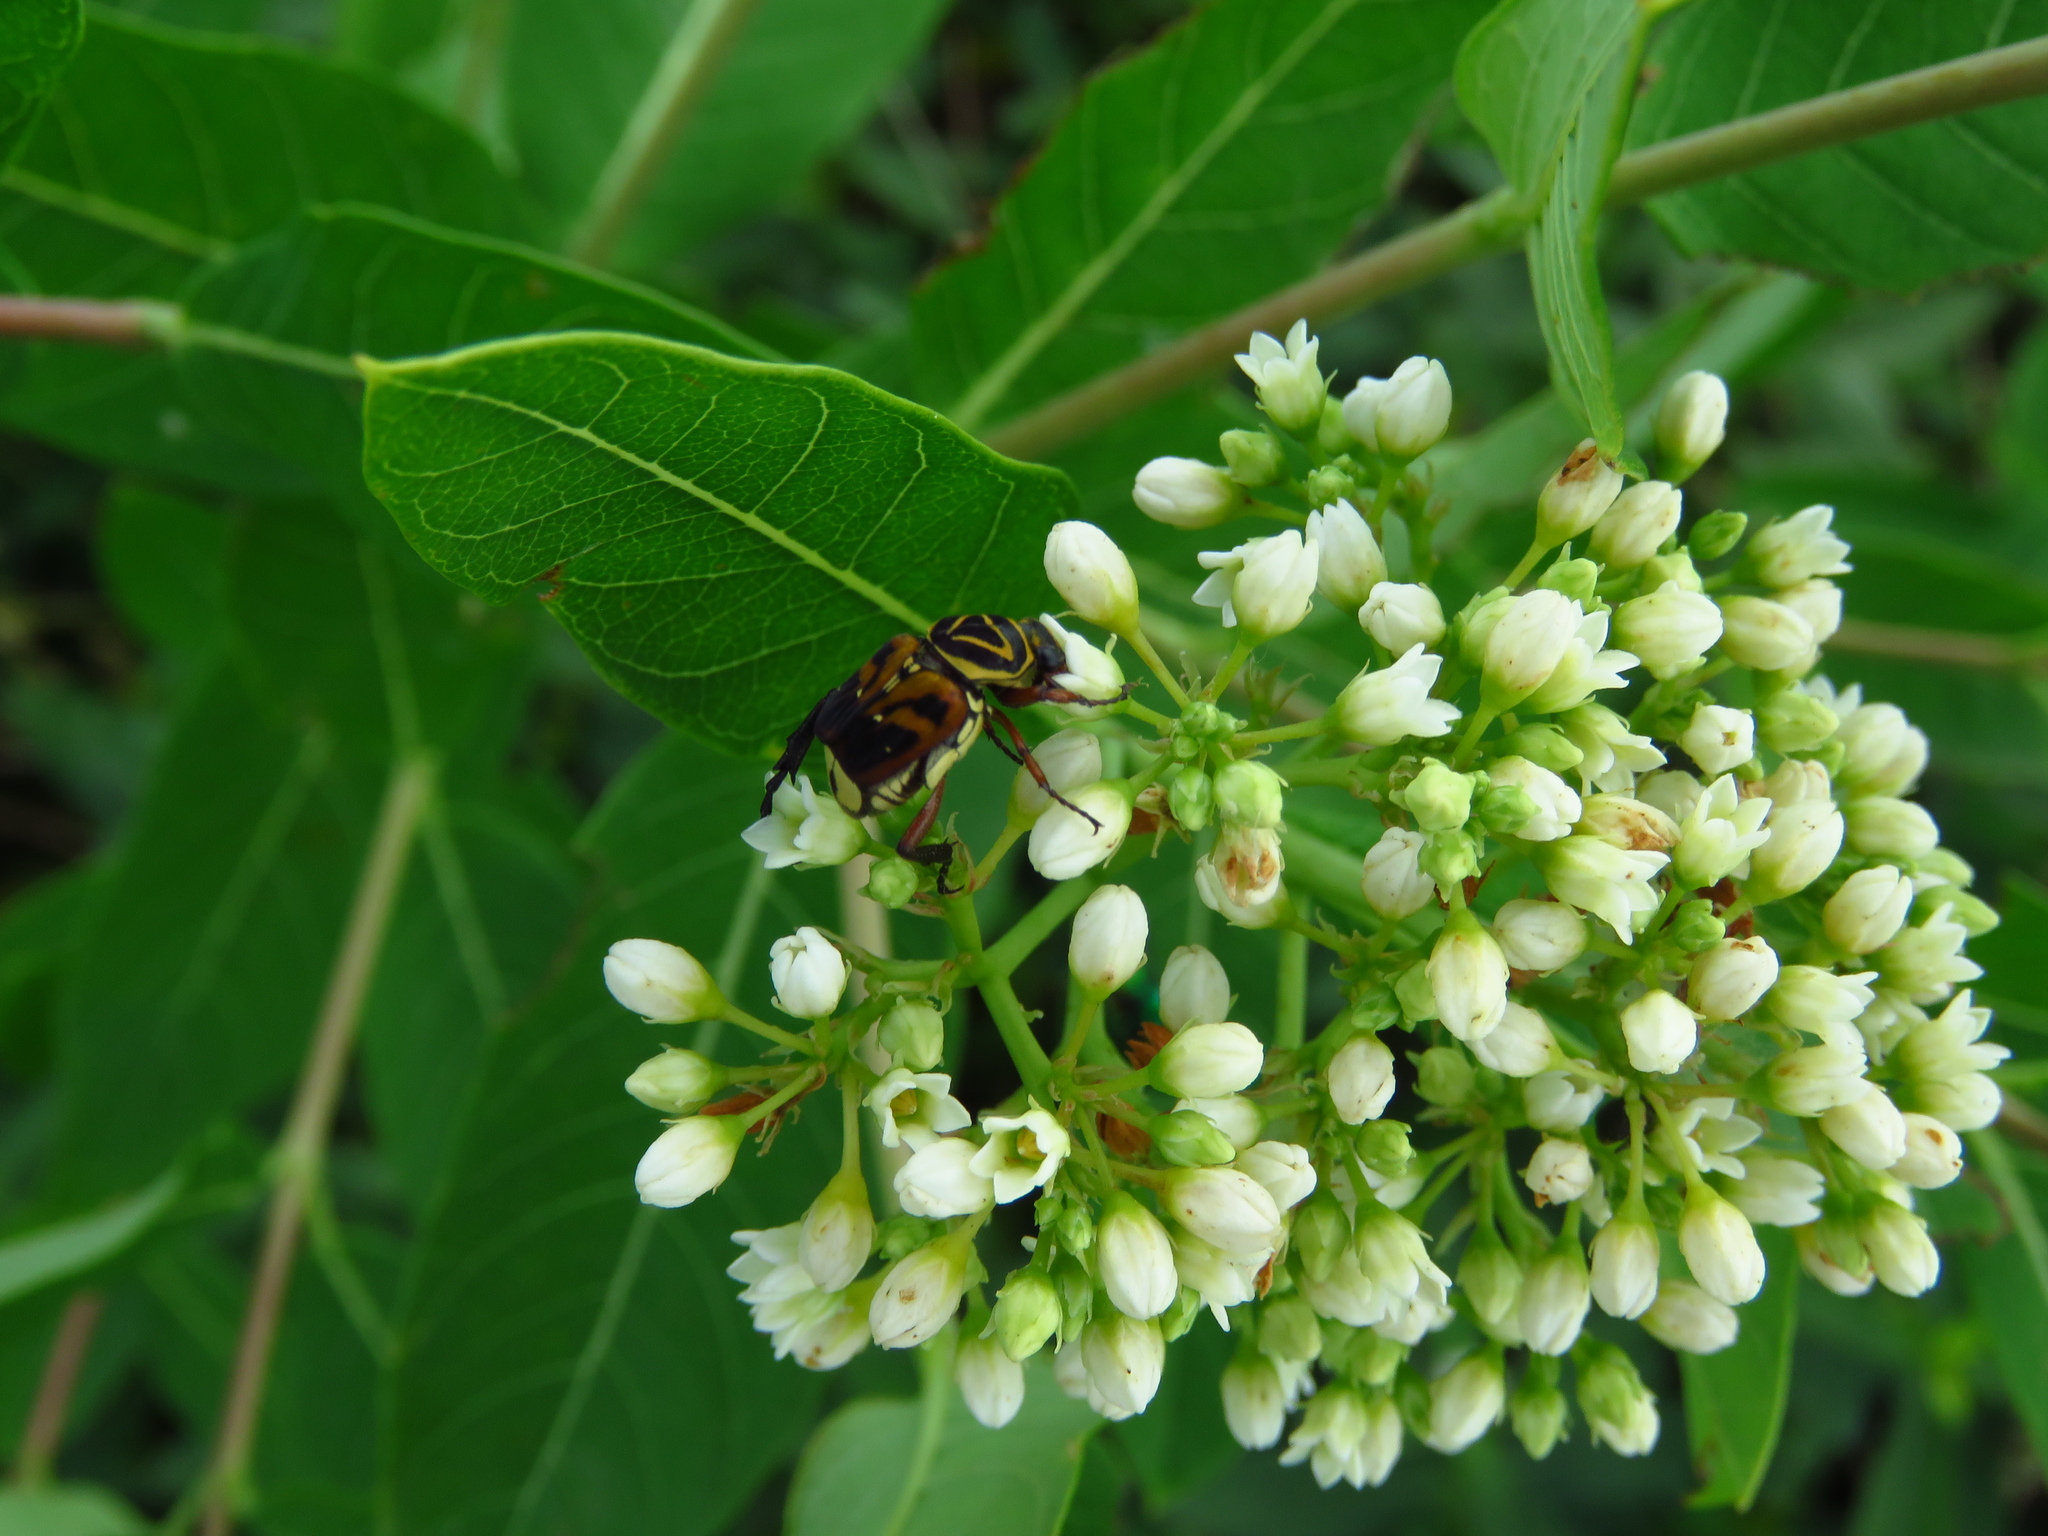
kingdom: Plantae
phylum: Tracheophyta
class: Magnoliopsida
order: Gentianales
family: Apocynaceae
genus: Apocynum
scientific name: Apocynum cannabinum
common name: Hemp dogbane
